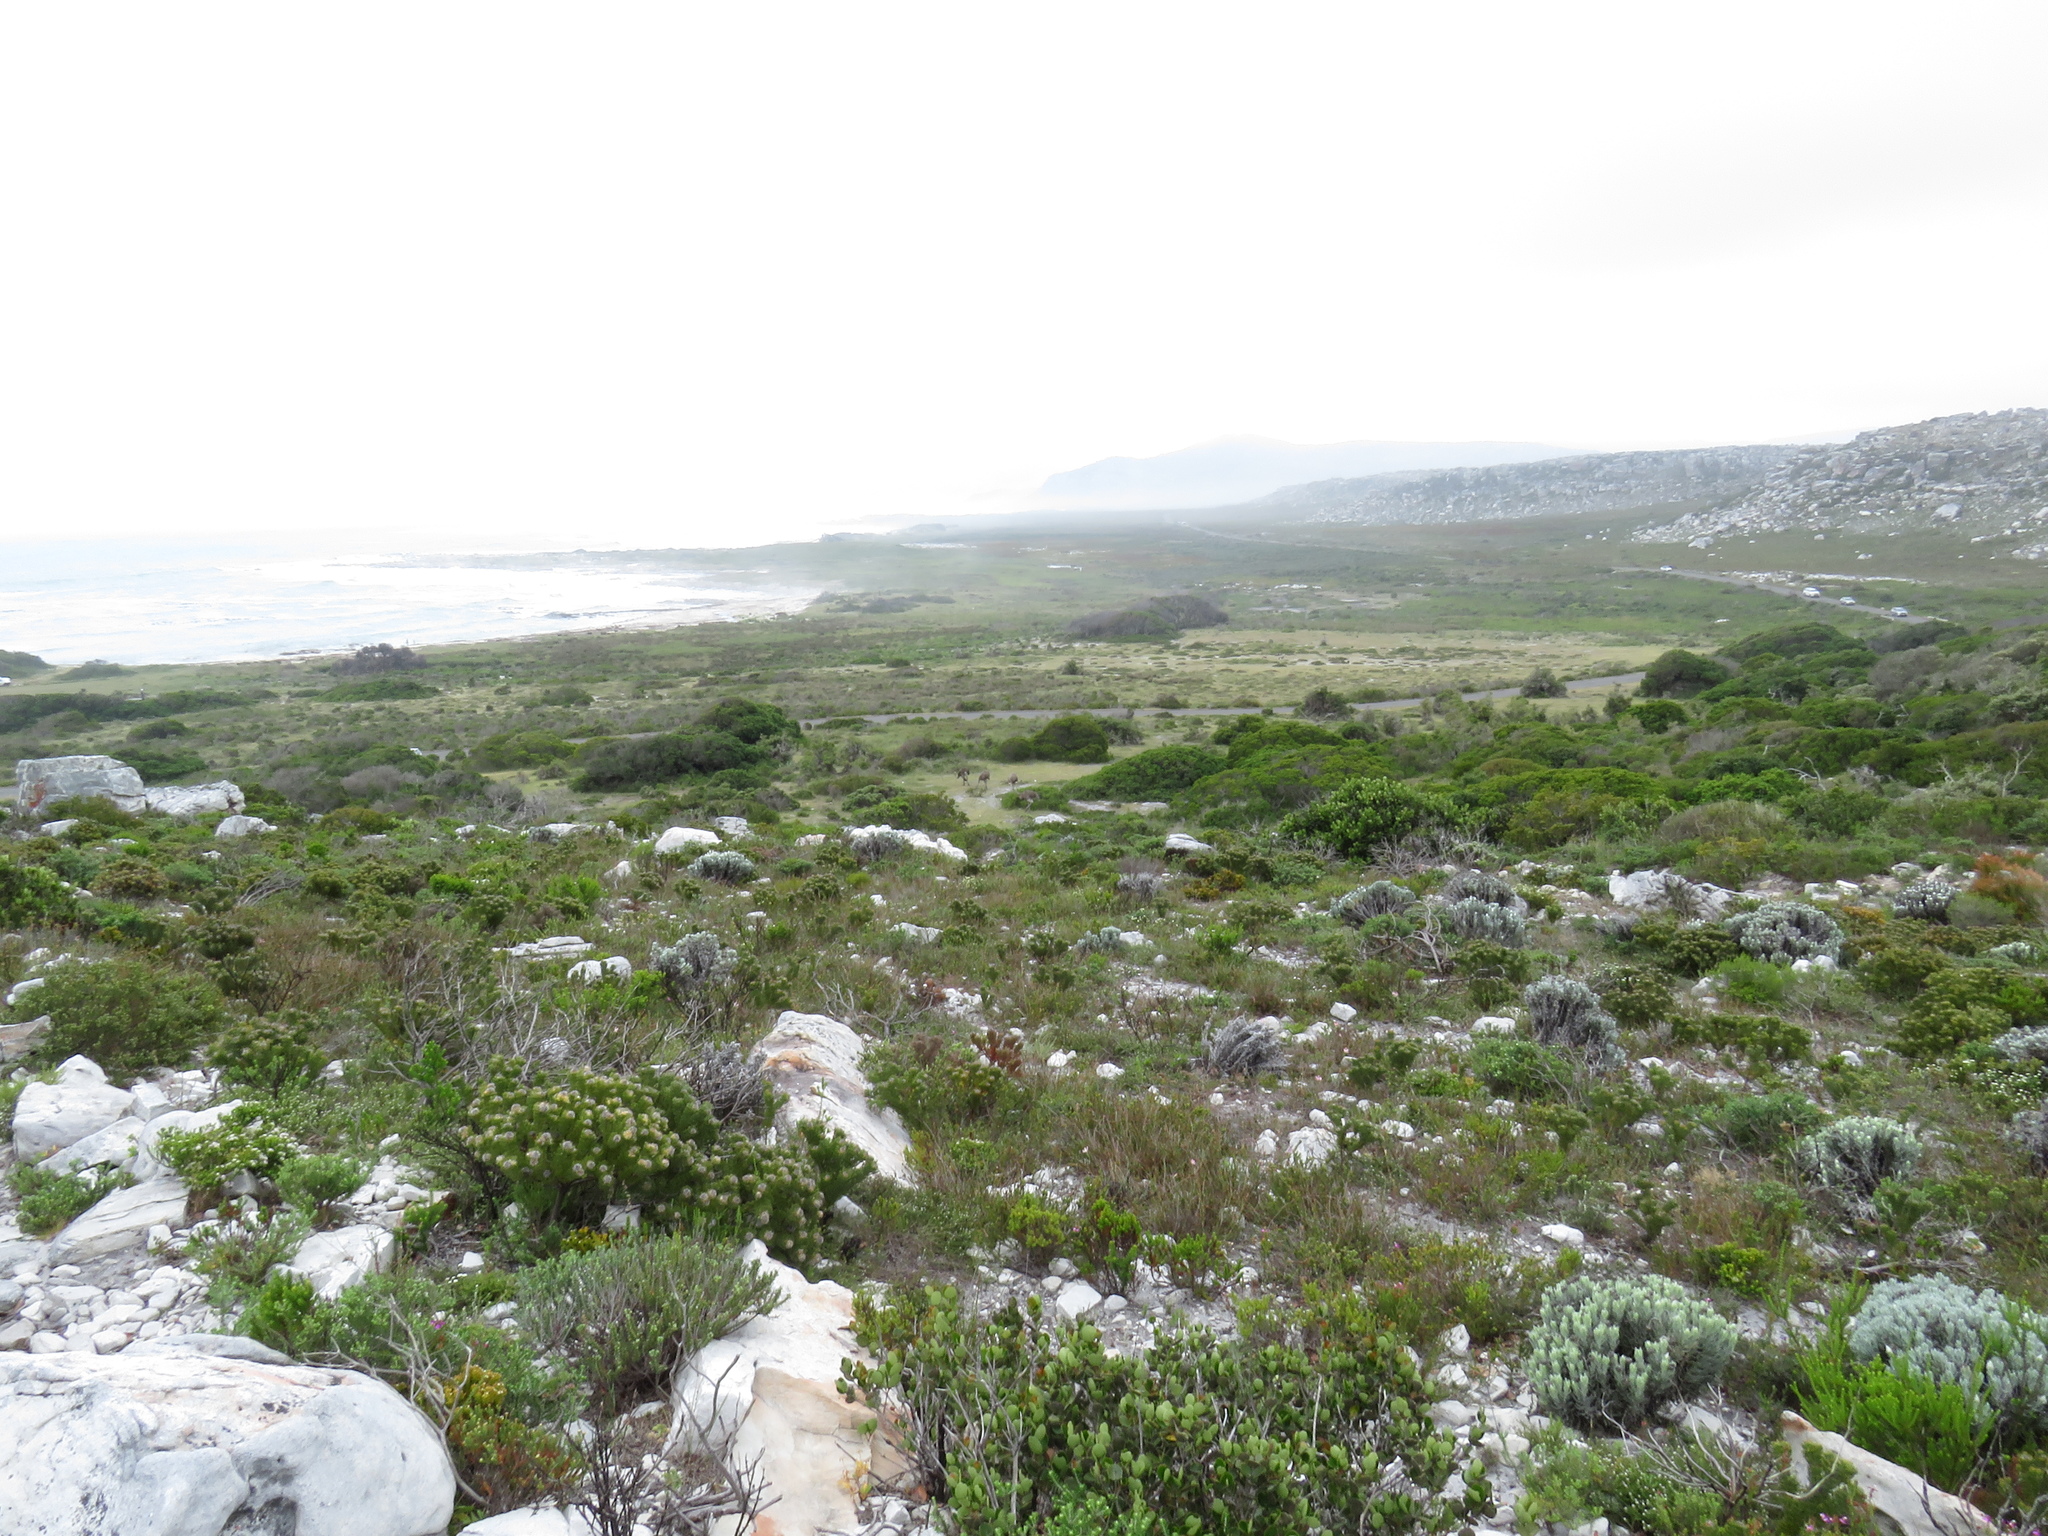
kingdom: Animalia
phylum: Chordata
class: Aves
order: Struthioniformes
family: Struthionidae
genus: Struthio
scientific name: Struthio camelus
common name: Common ostrich
